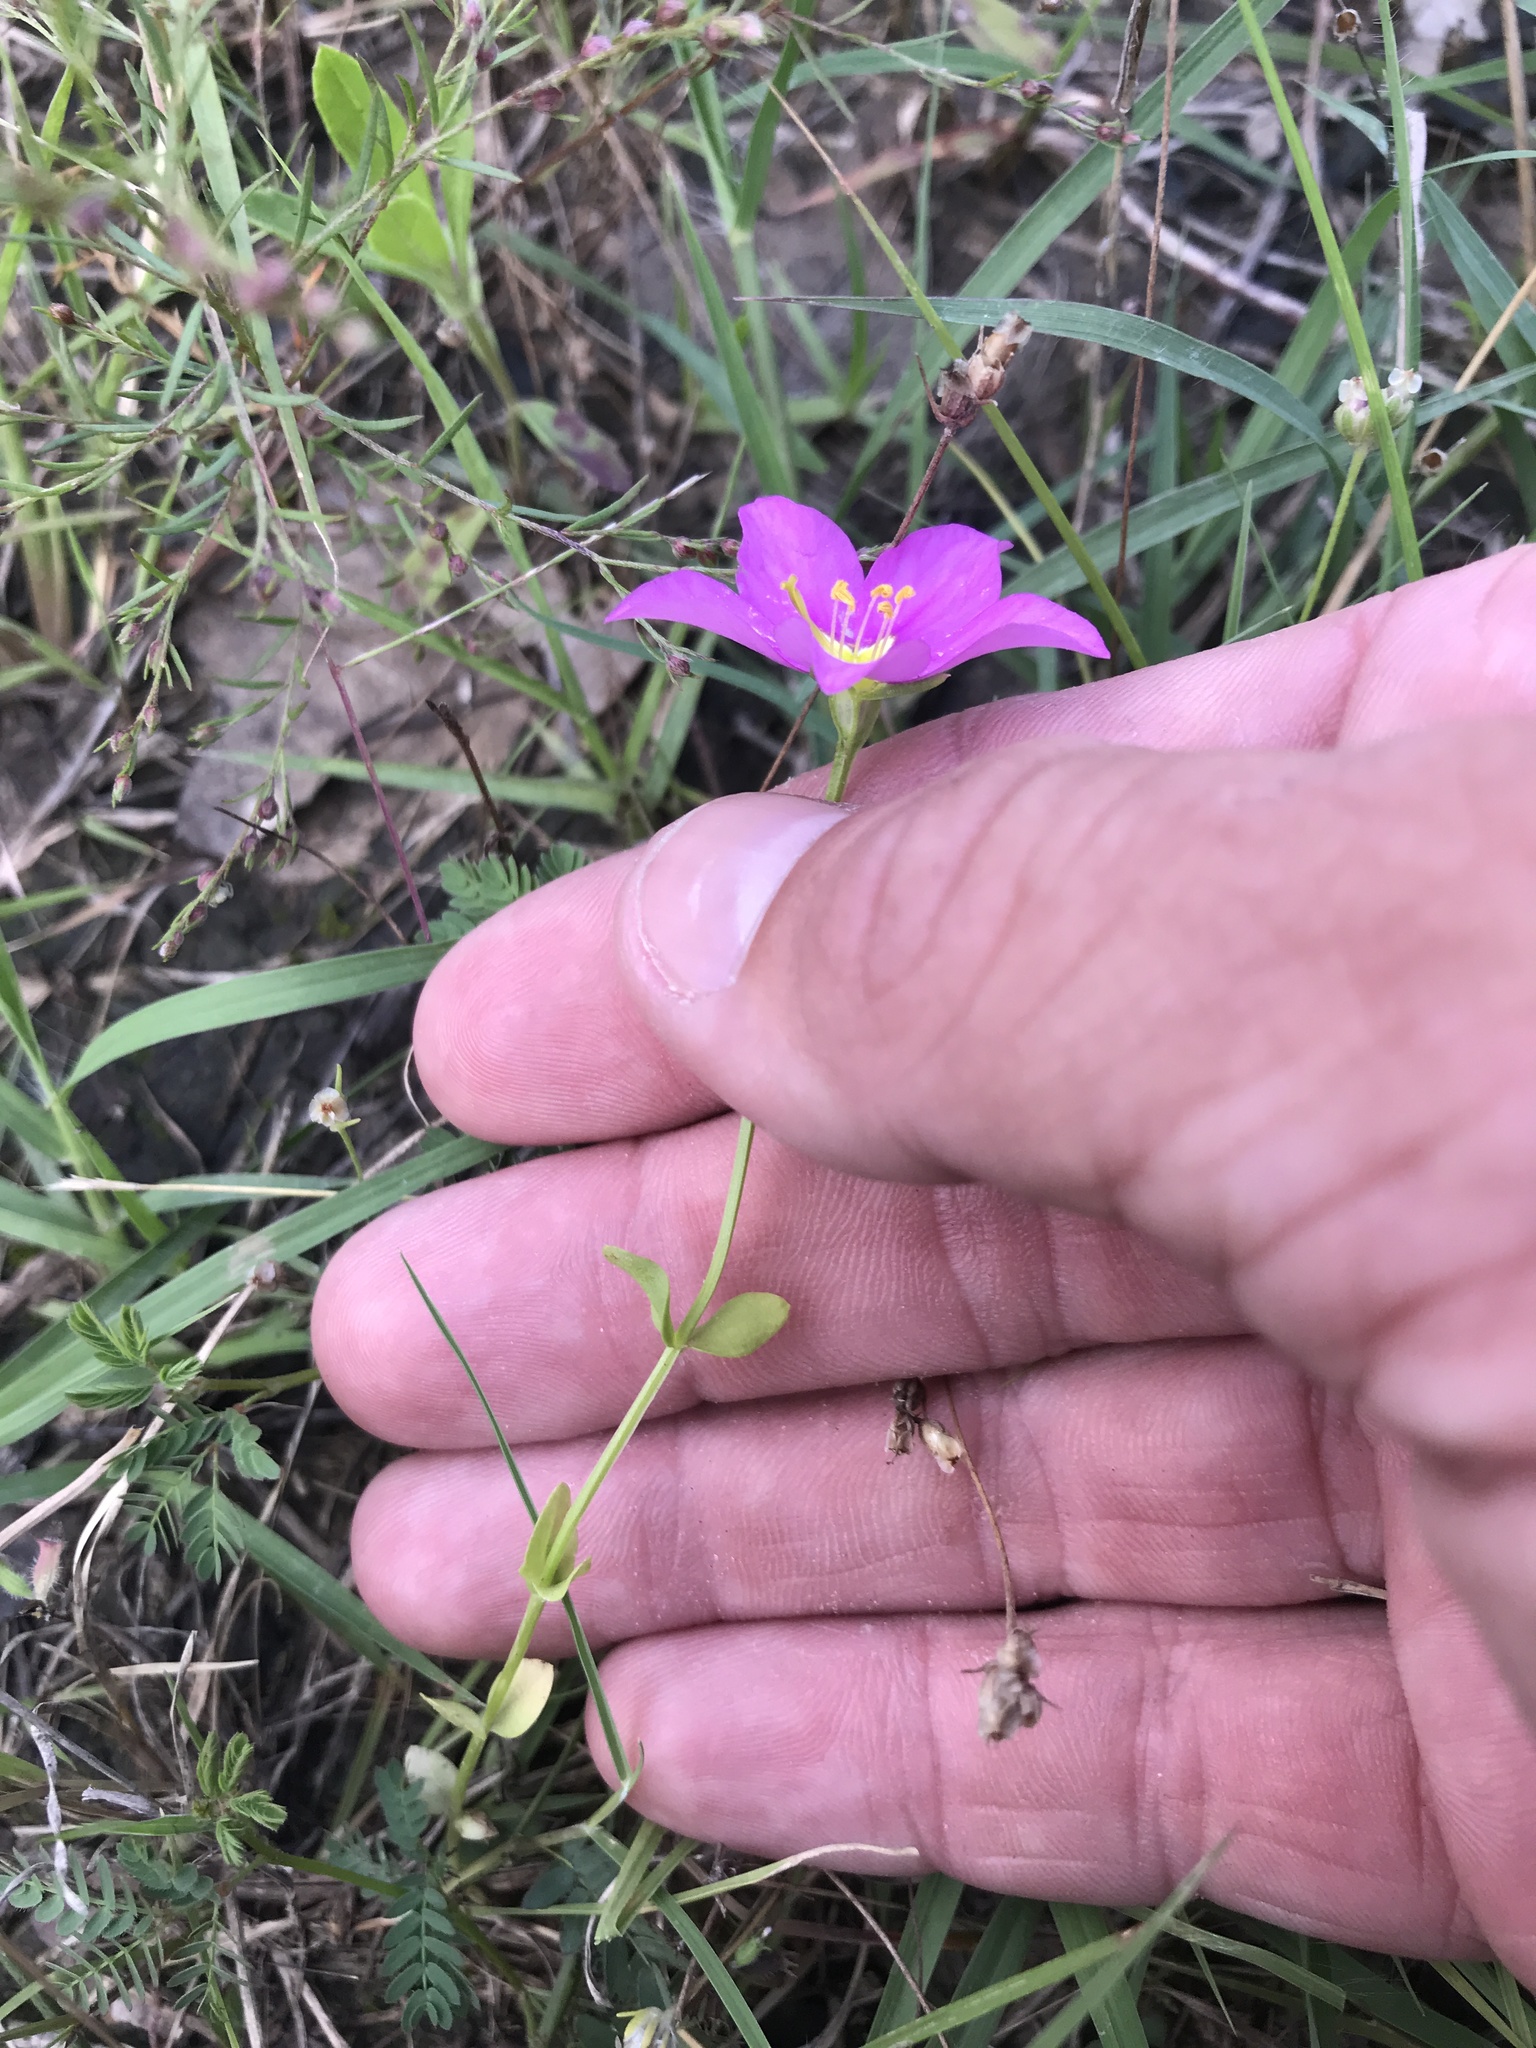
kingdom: Plantae
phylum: Tracheophyta
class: Magnoliopsida
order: Gentianales
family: Gentianaceae
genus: Sabatia
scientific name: Sabatia campestris
